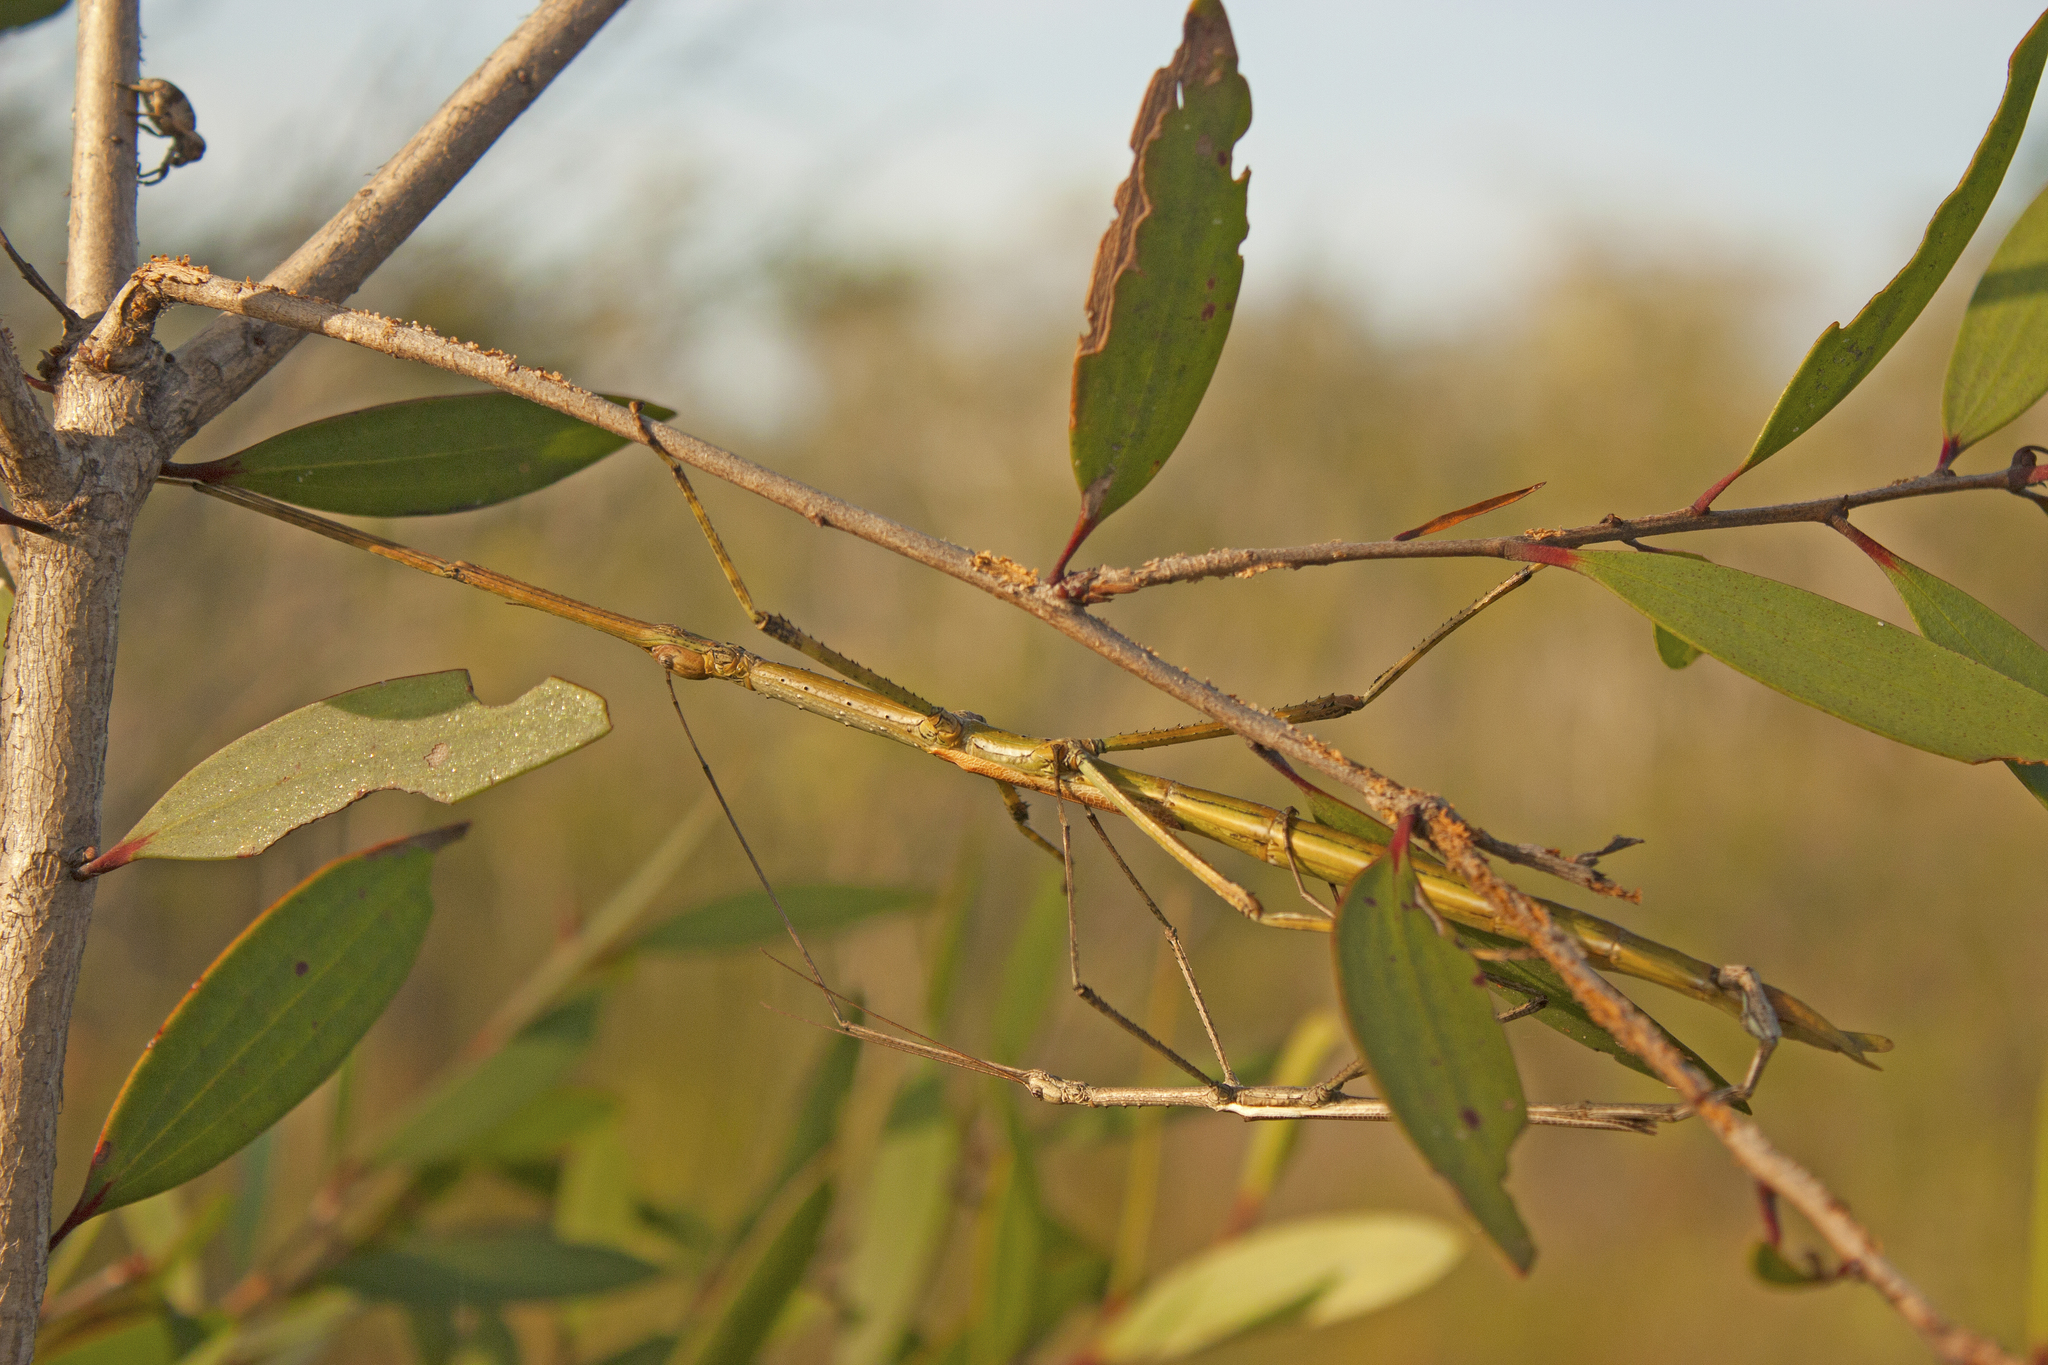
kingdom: Animalia
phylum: Arthropoda
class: Insecta
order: Phasmida
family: Phasmatidae
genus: Anchiale
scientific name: Anchiale austrotessulata
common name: Tessellated stick-insect
